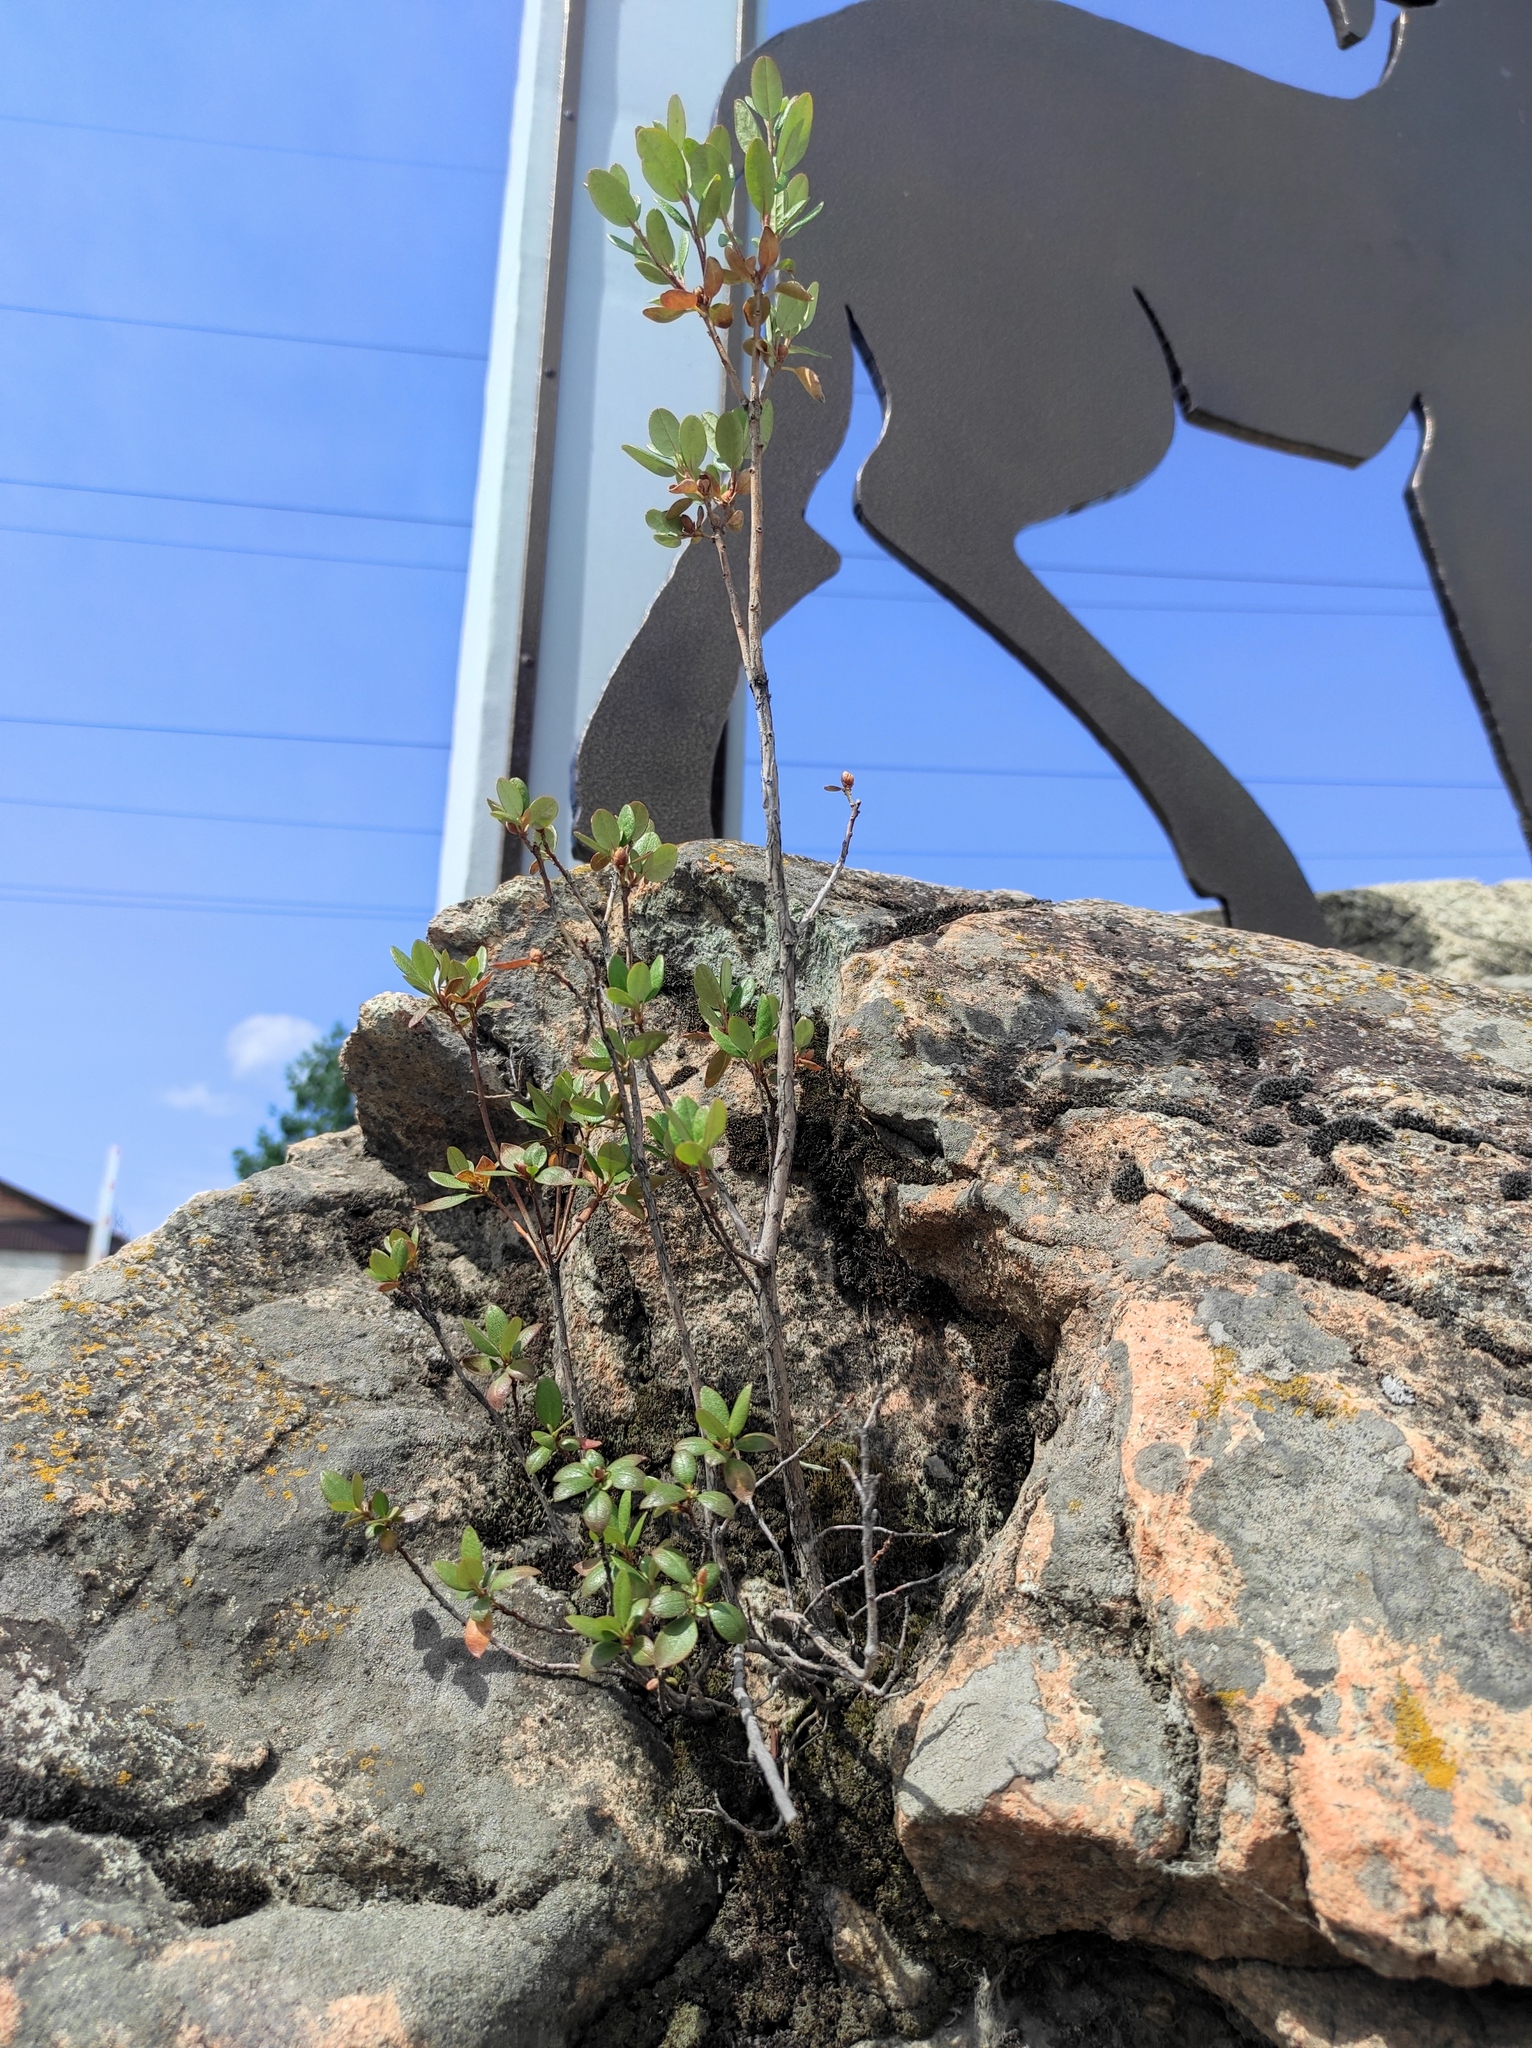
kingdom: Plantae
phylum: Tracheophyta
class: Magnoliopsida
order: Ericales
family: Ericaceae
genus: Rhododendron
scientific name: Rhododendron dauricum
